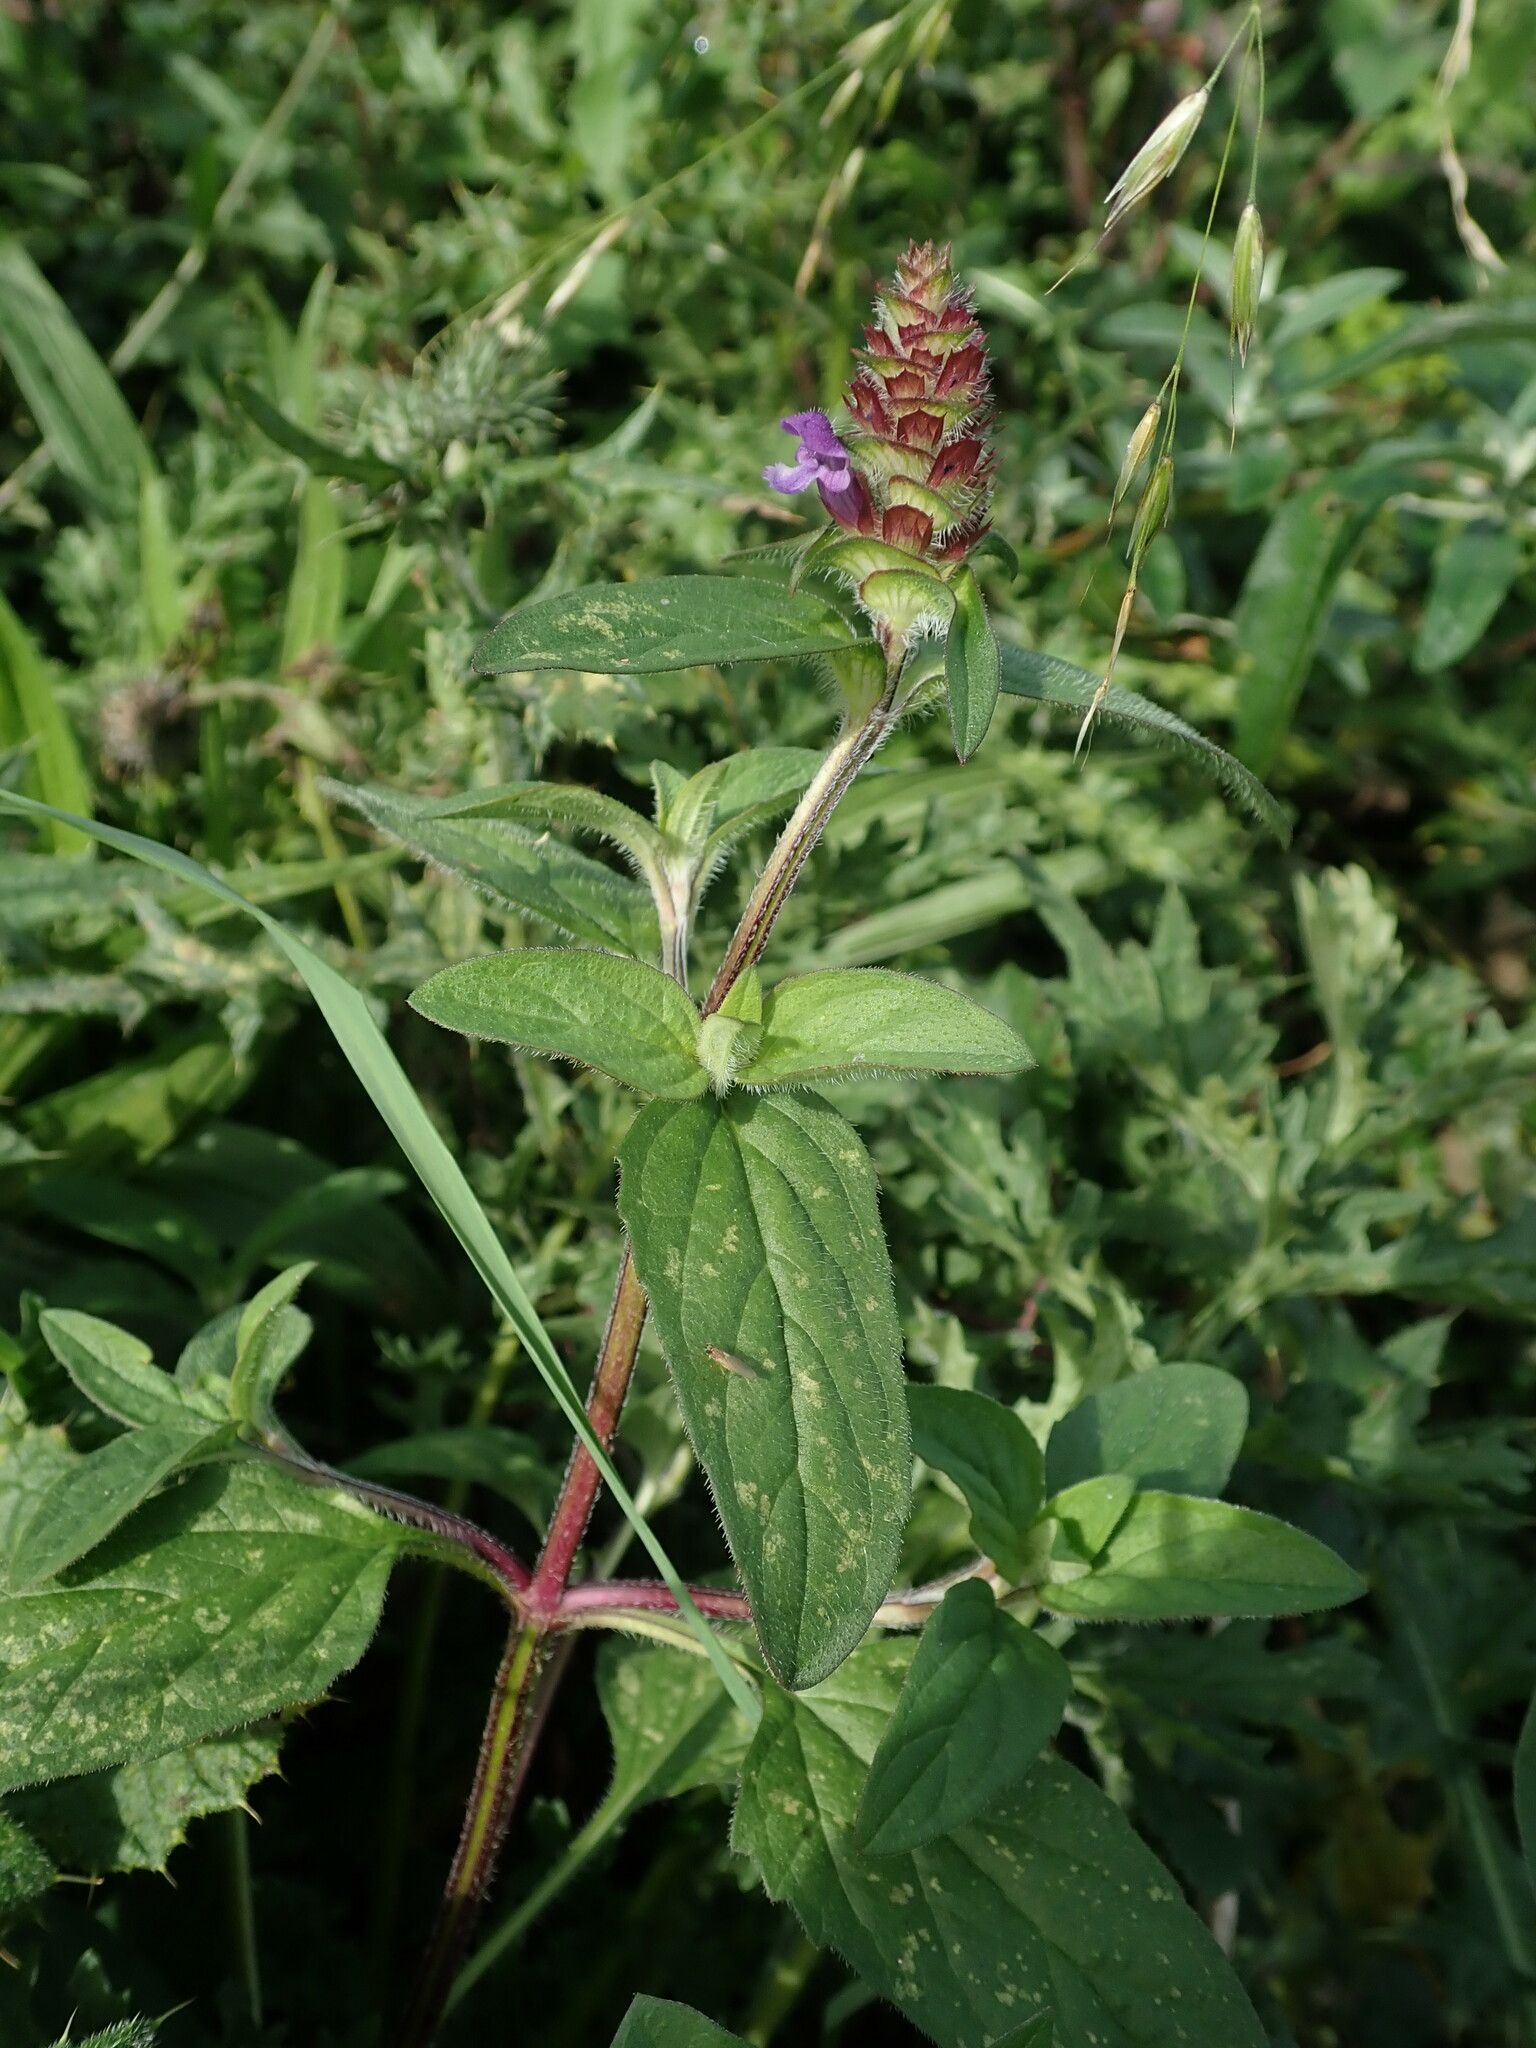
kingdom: Plantae
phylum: Tracheophyta
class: Magnoliopsida
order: Lamiales
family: Lamiaceae
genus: Prunella
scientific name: Prunella vulgaris
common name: Heal-all
